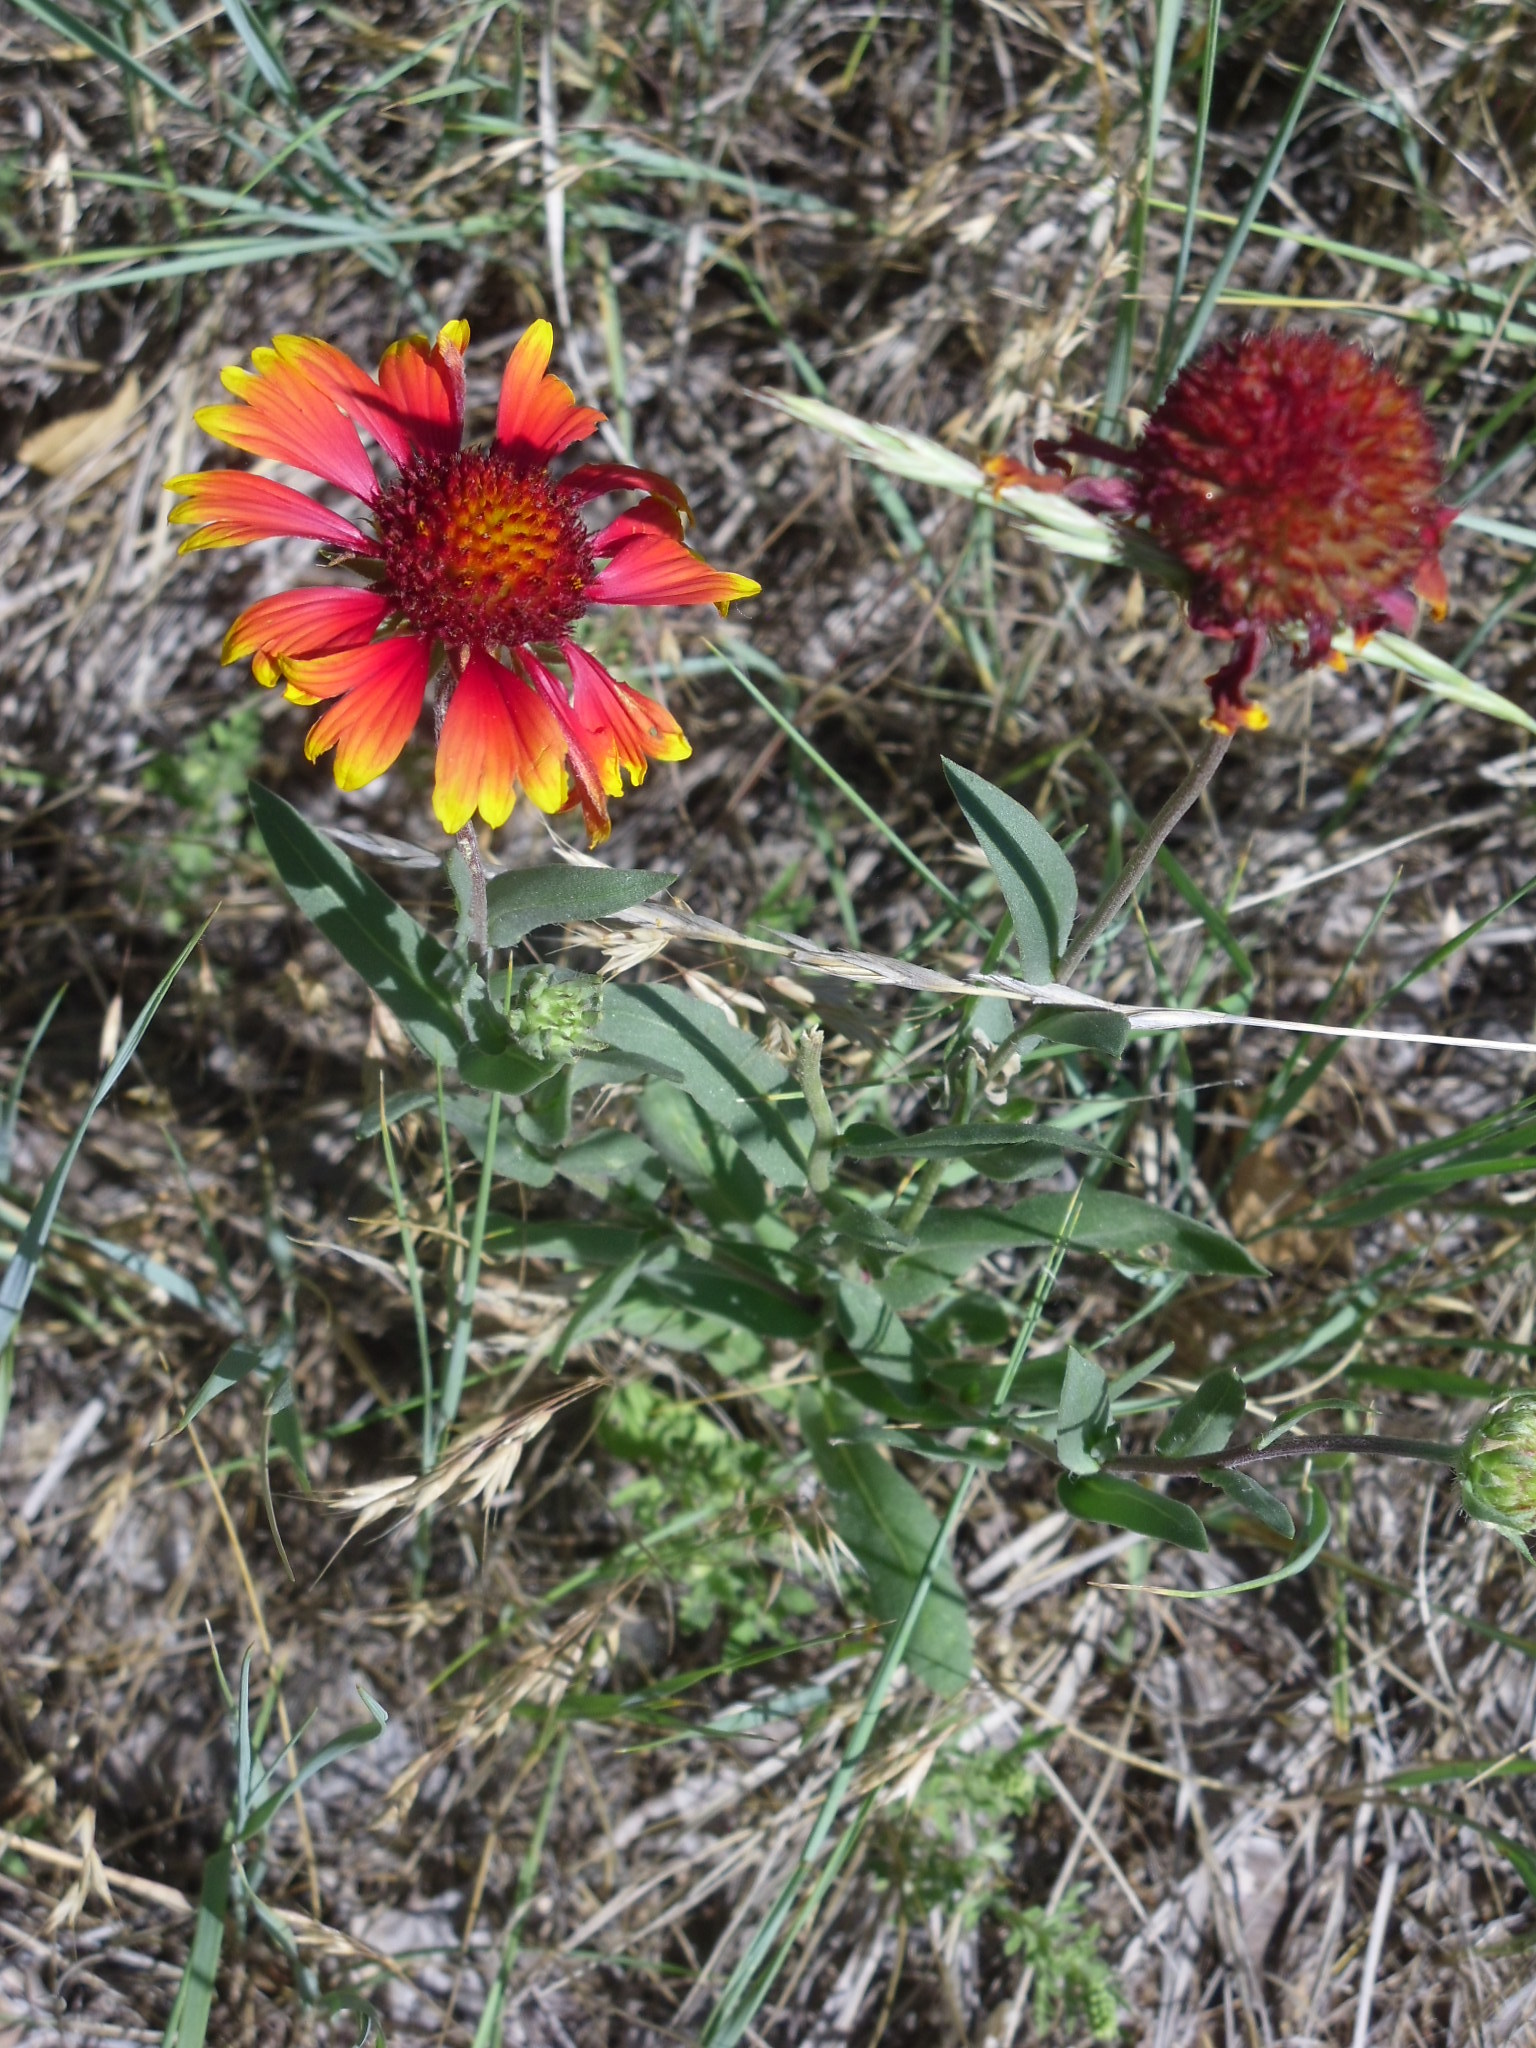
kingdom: Plantae
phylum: Tracheophyta
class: Magnoliopsida
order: Asterales
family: Asteraceae
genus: Gaillardia
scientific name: Gaillardia grandiflora
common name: Blanket flower
